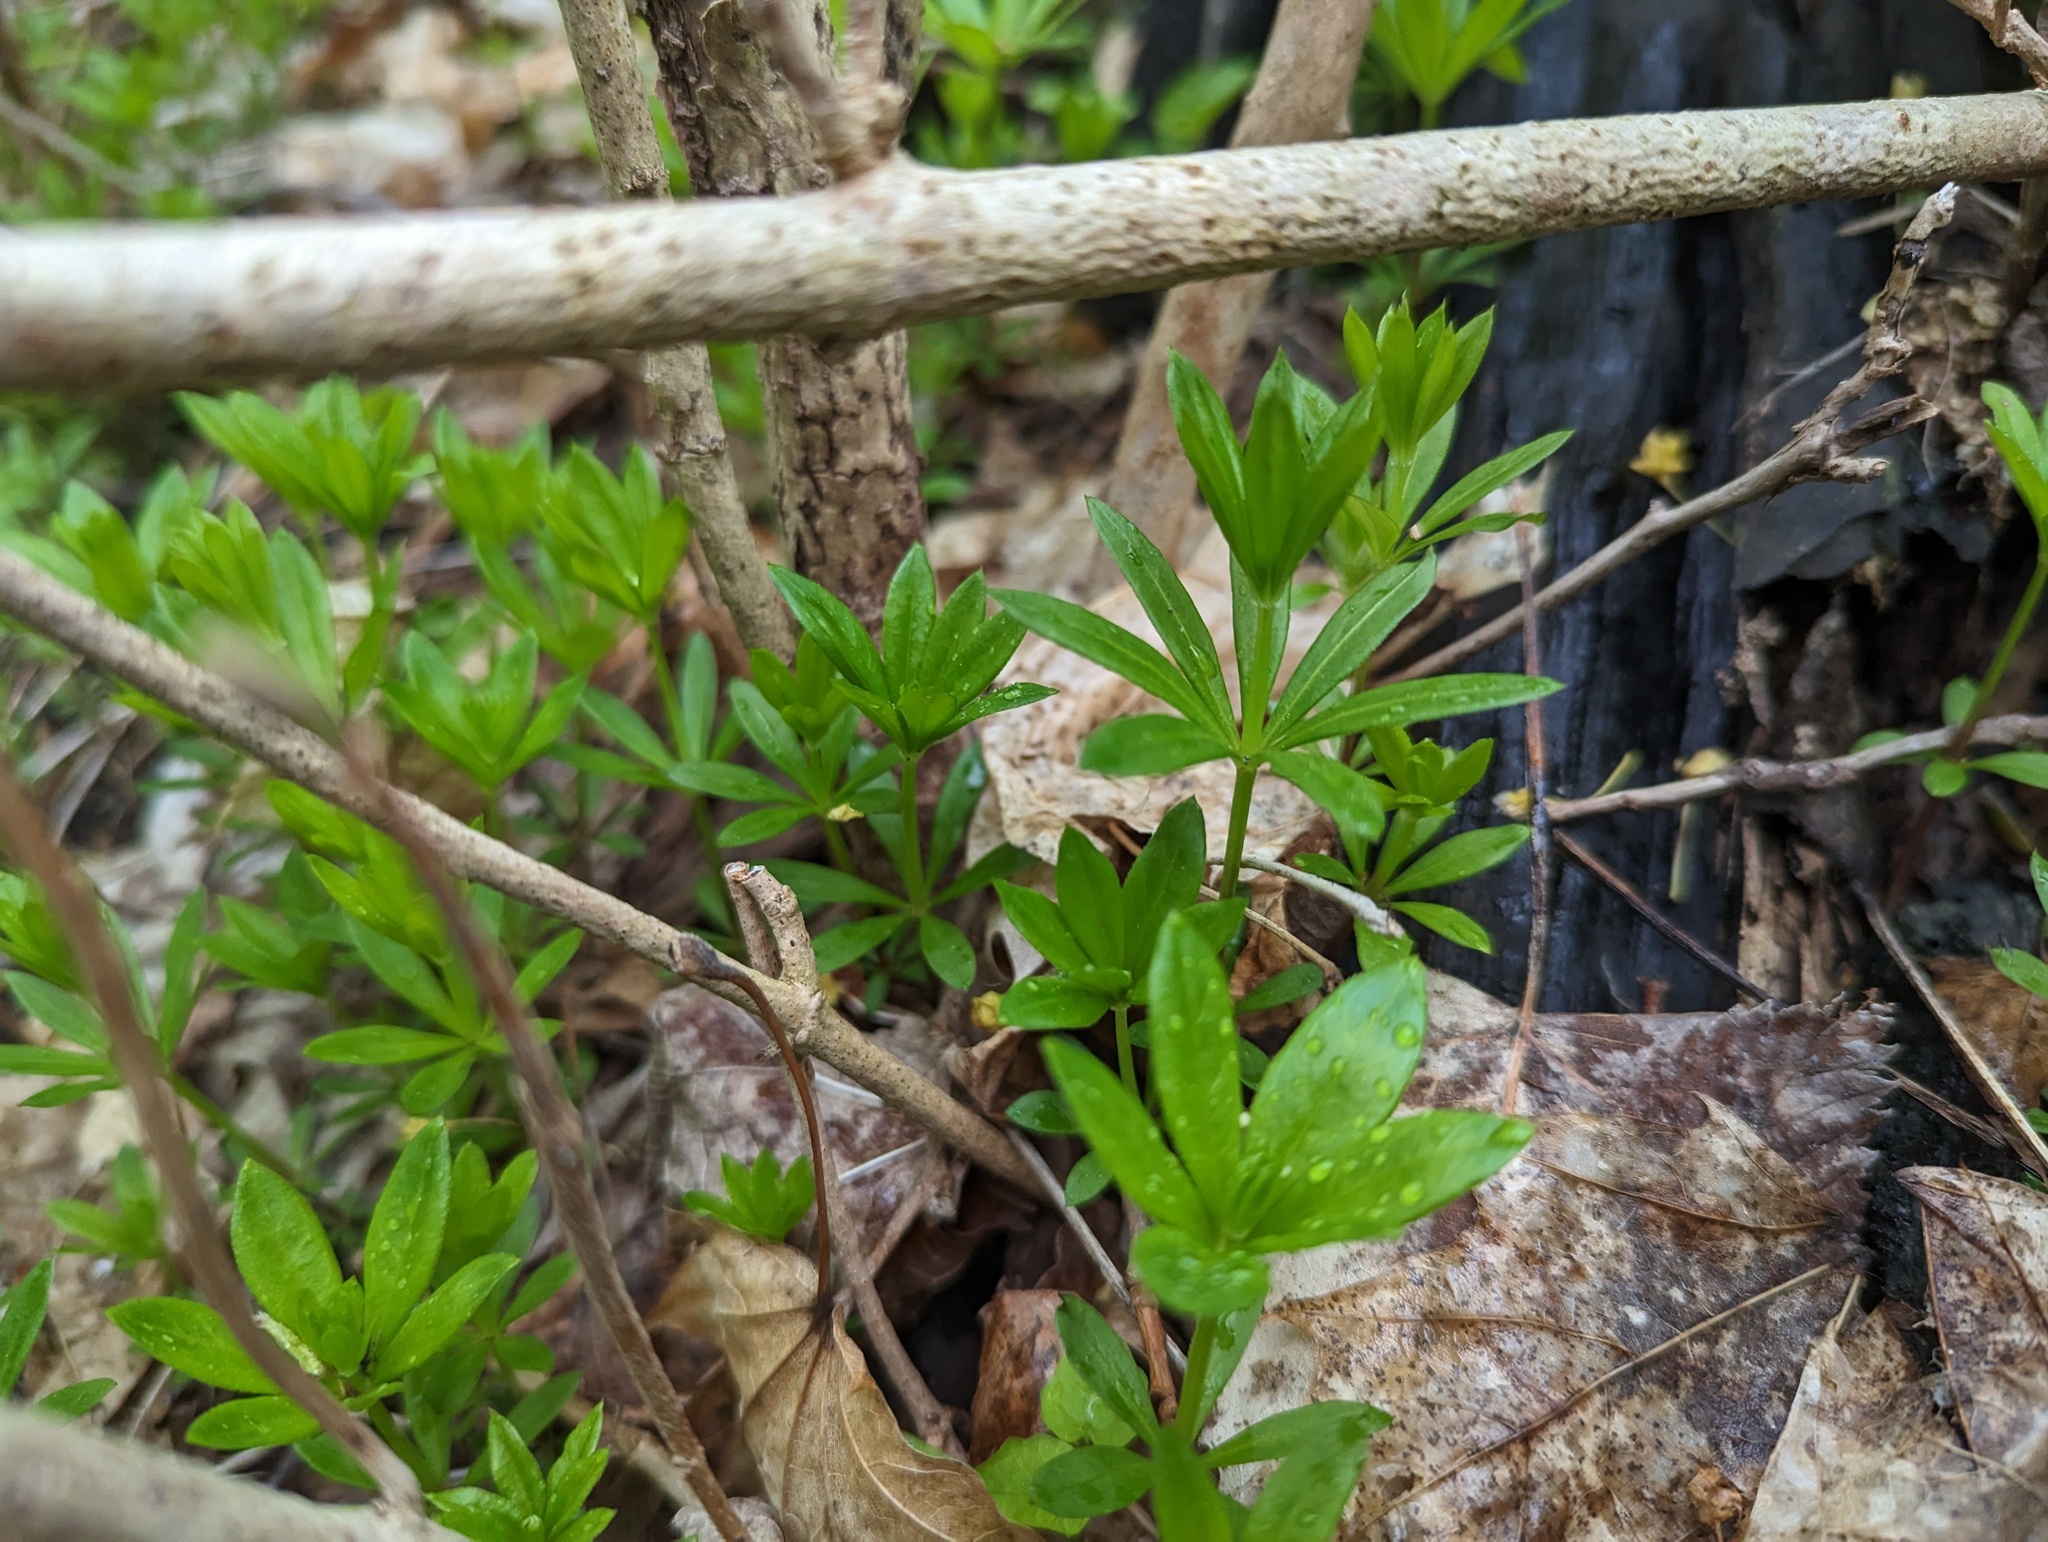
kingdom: Plantae
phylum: Tracheophyta
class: Magnoliopsida
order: Gentianales
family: Rubiaceae
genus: Galium
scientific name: Galium odoratum
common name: Sweet woodruff
